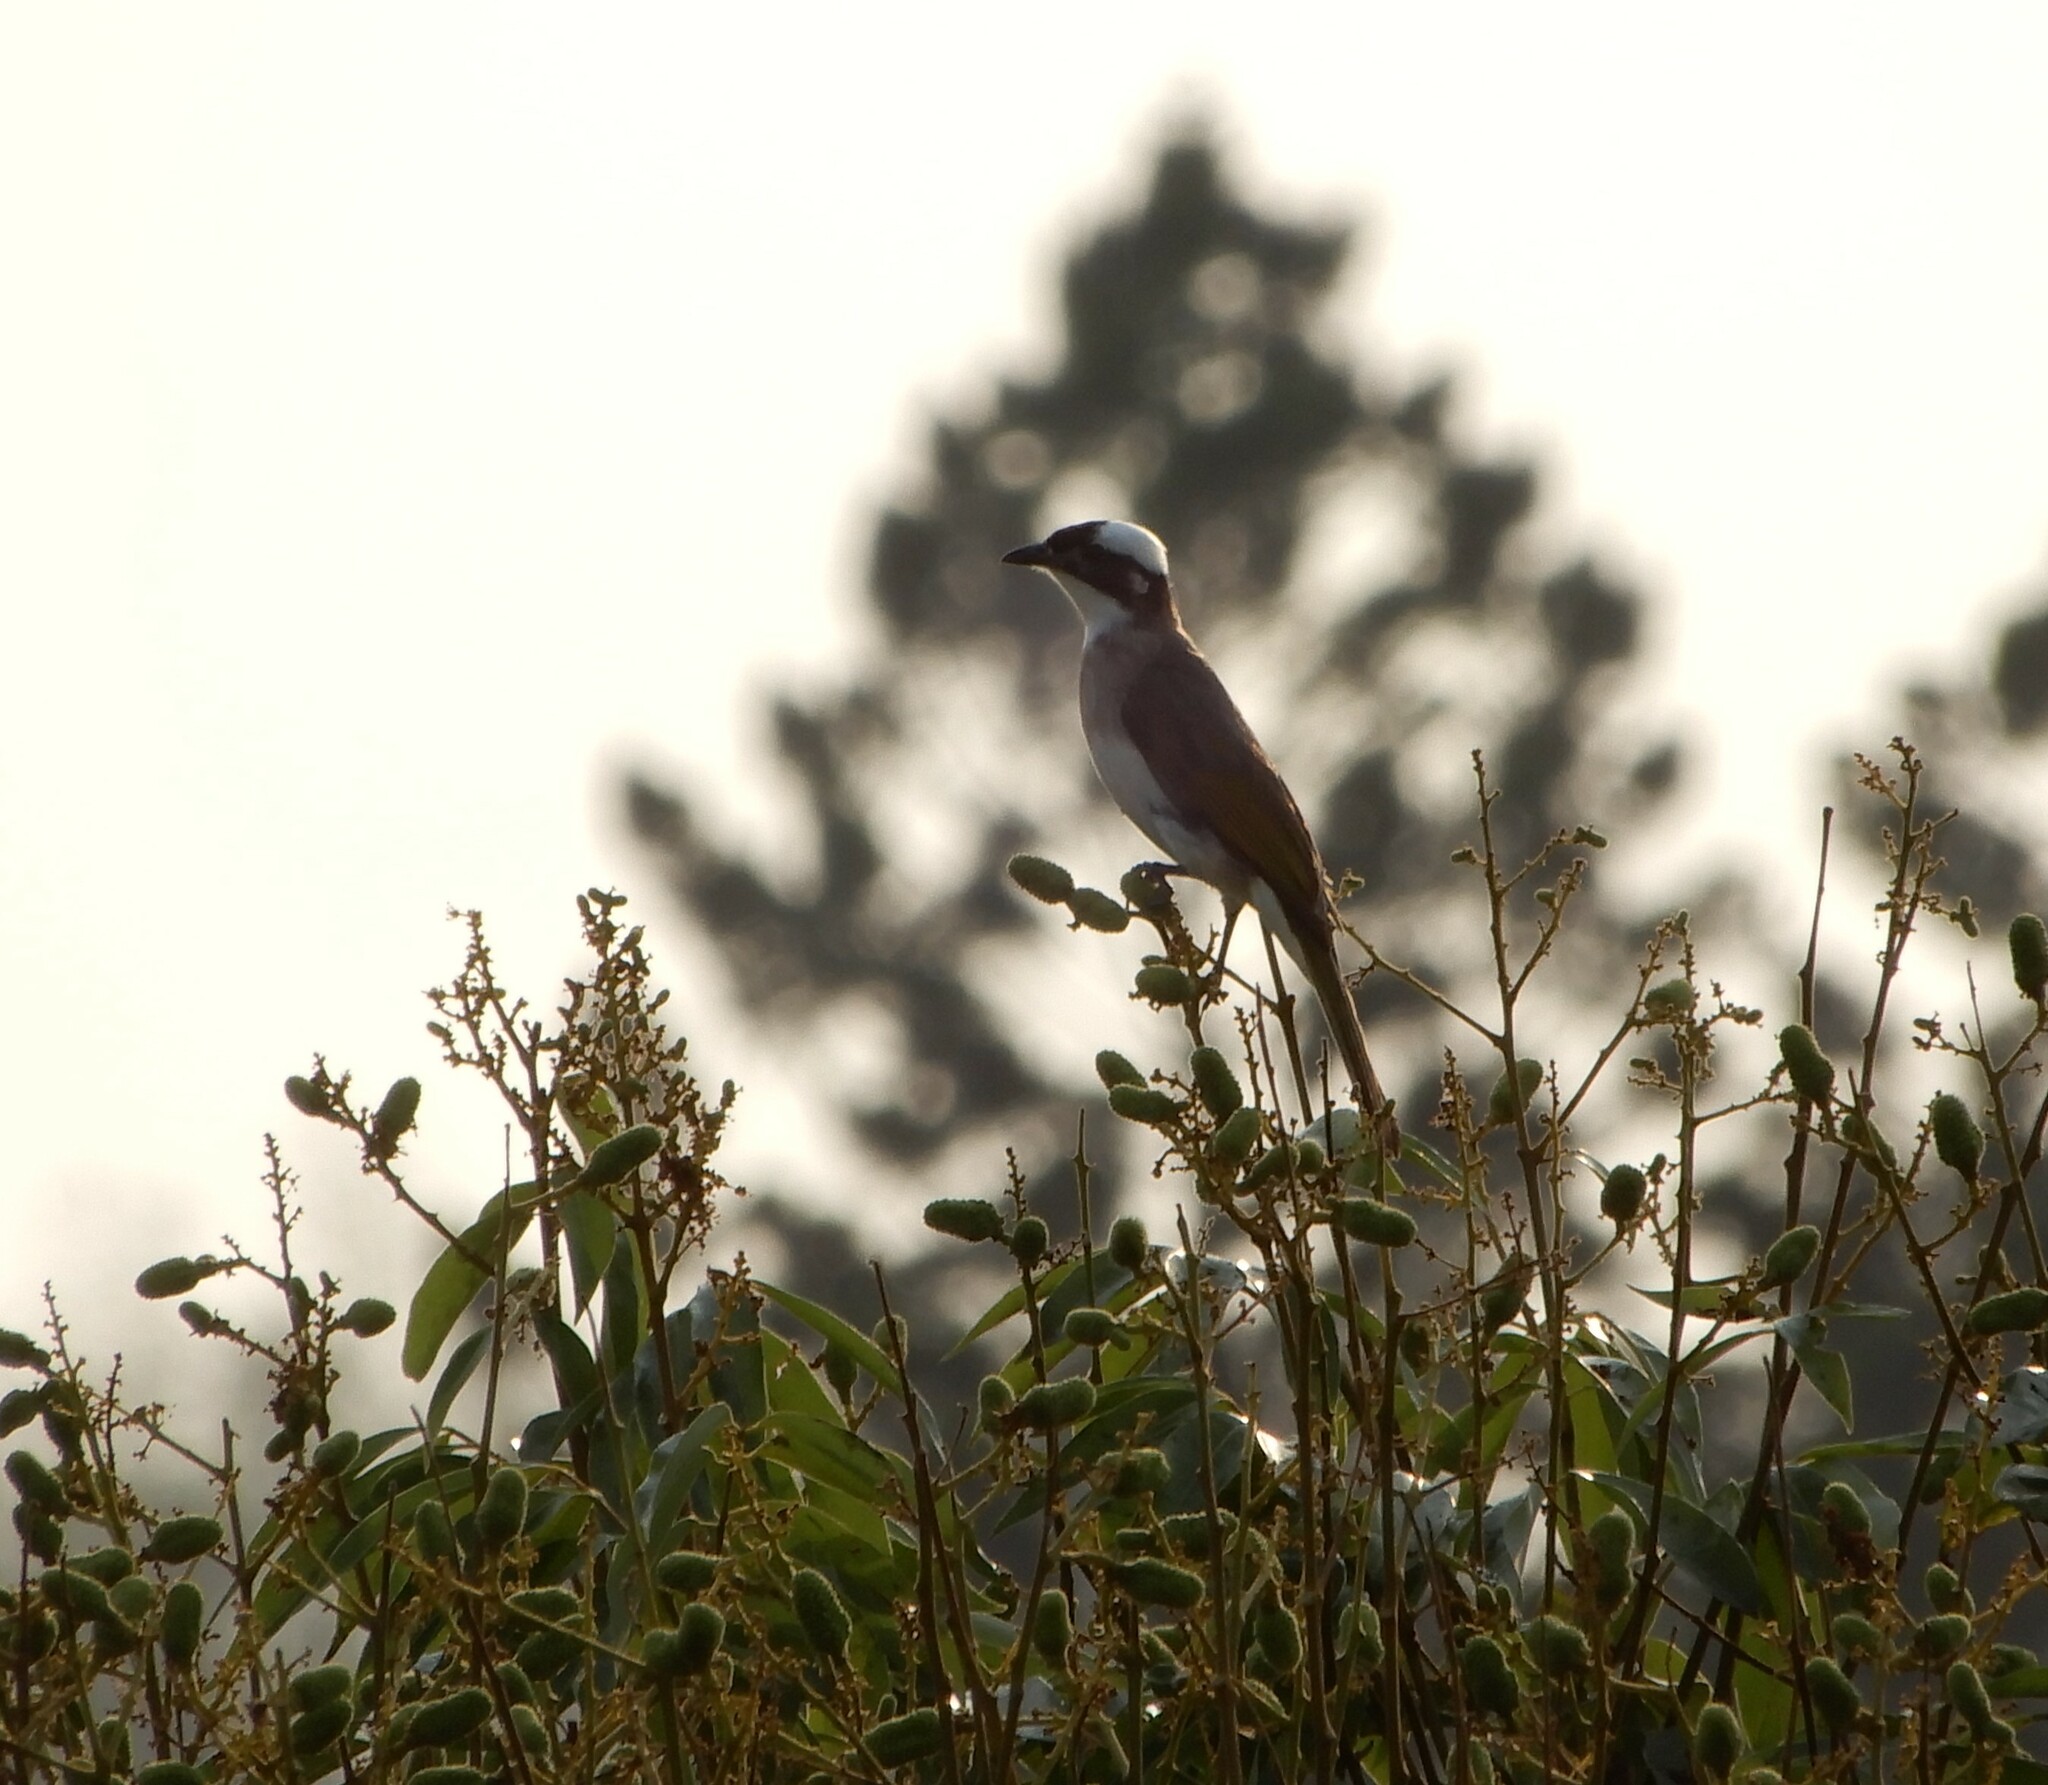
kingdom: Animalia
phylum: Chordata
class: Aves
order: Passeriformes
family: Pycnonotidae
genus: Pycnonotus
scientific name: Pycnonotus sinensis
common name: Light-vented bulbul
